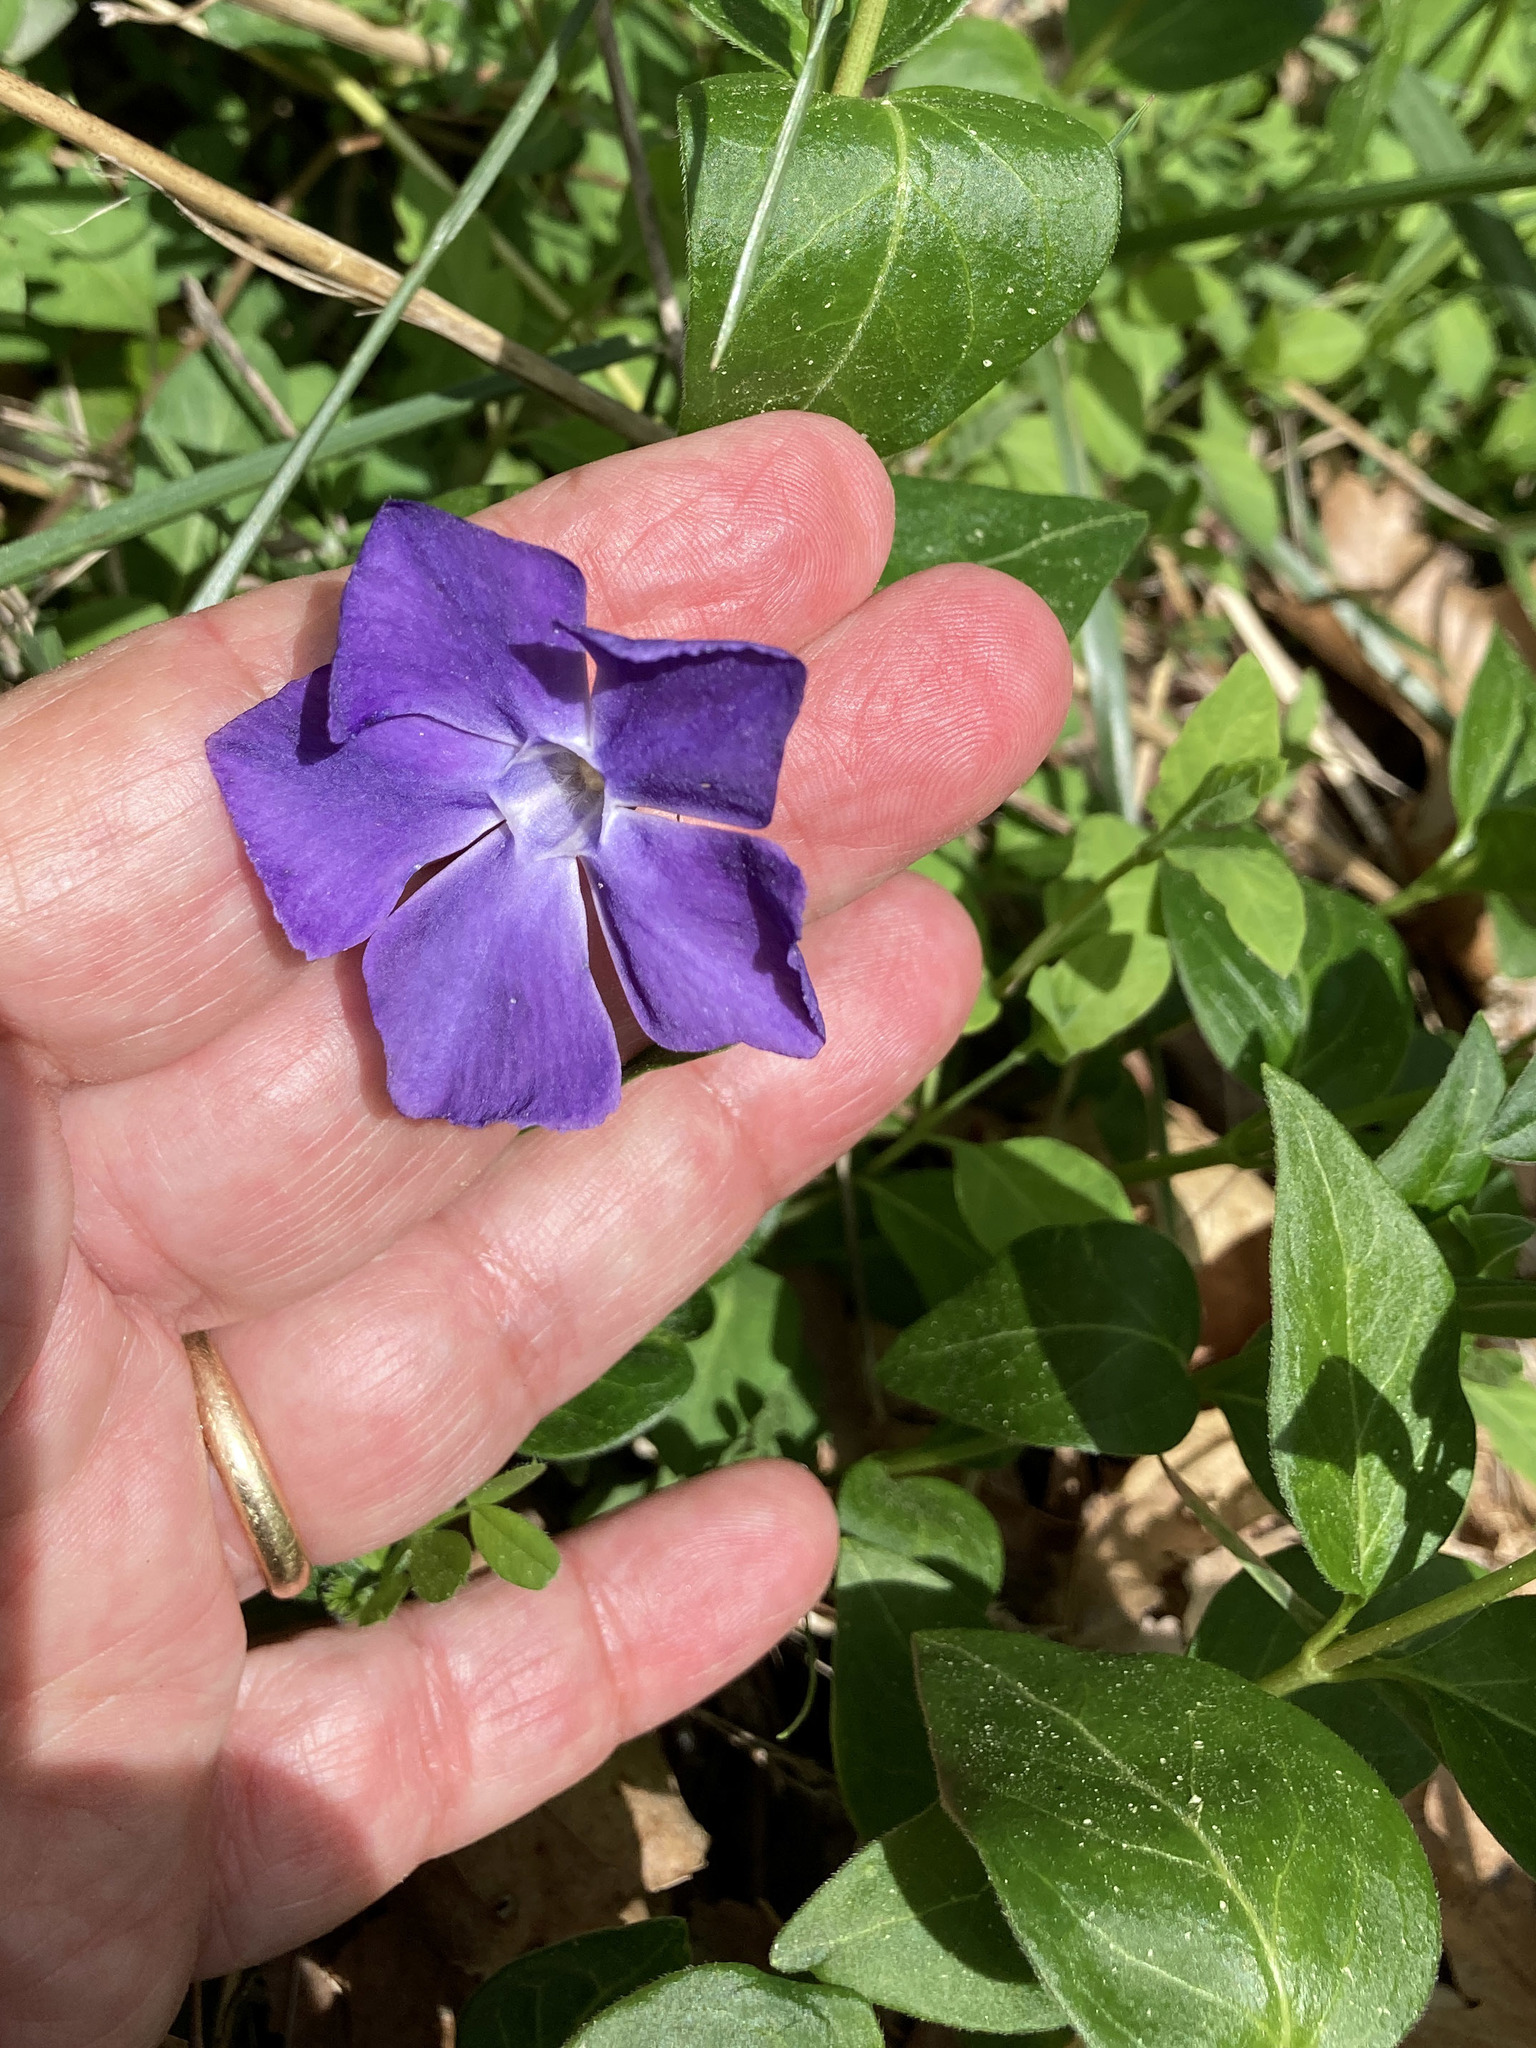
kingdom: Plantae
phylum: Tracheophyta
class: Magnoliopsida
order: Gentianales
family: Apocynaceae
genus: Vinca
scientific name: Vinca major
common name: Greater periwinkle
